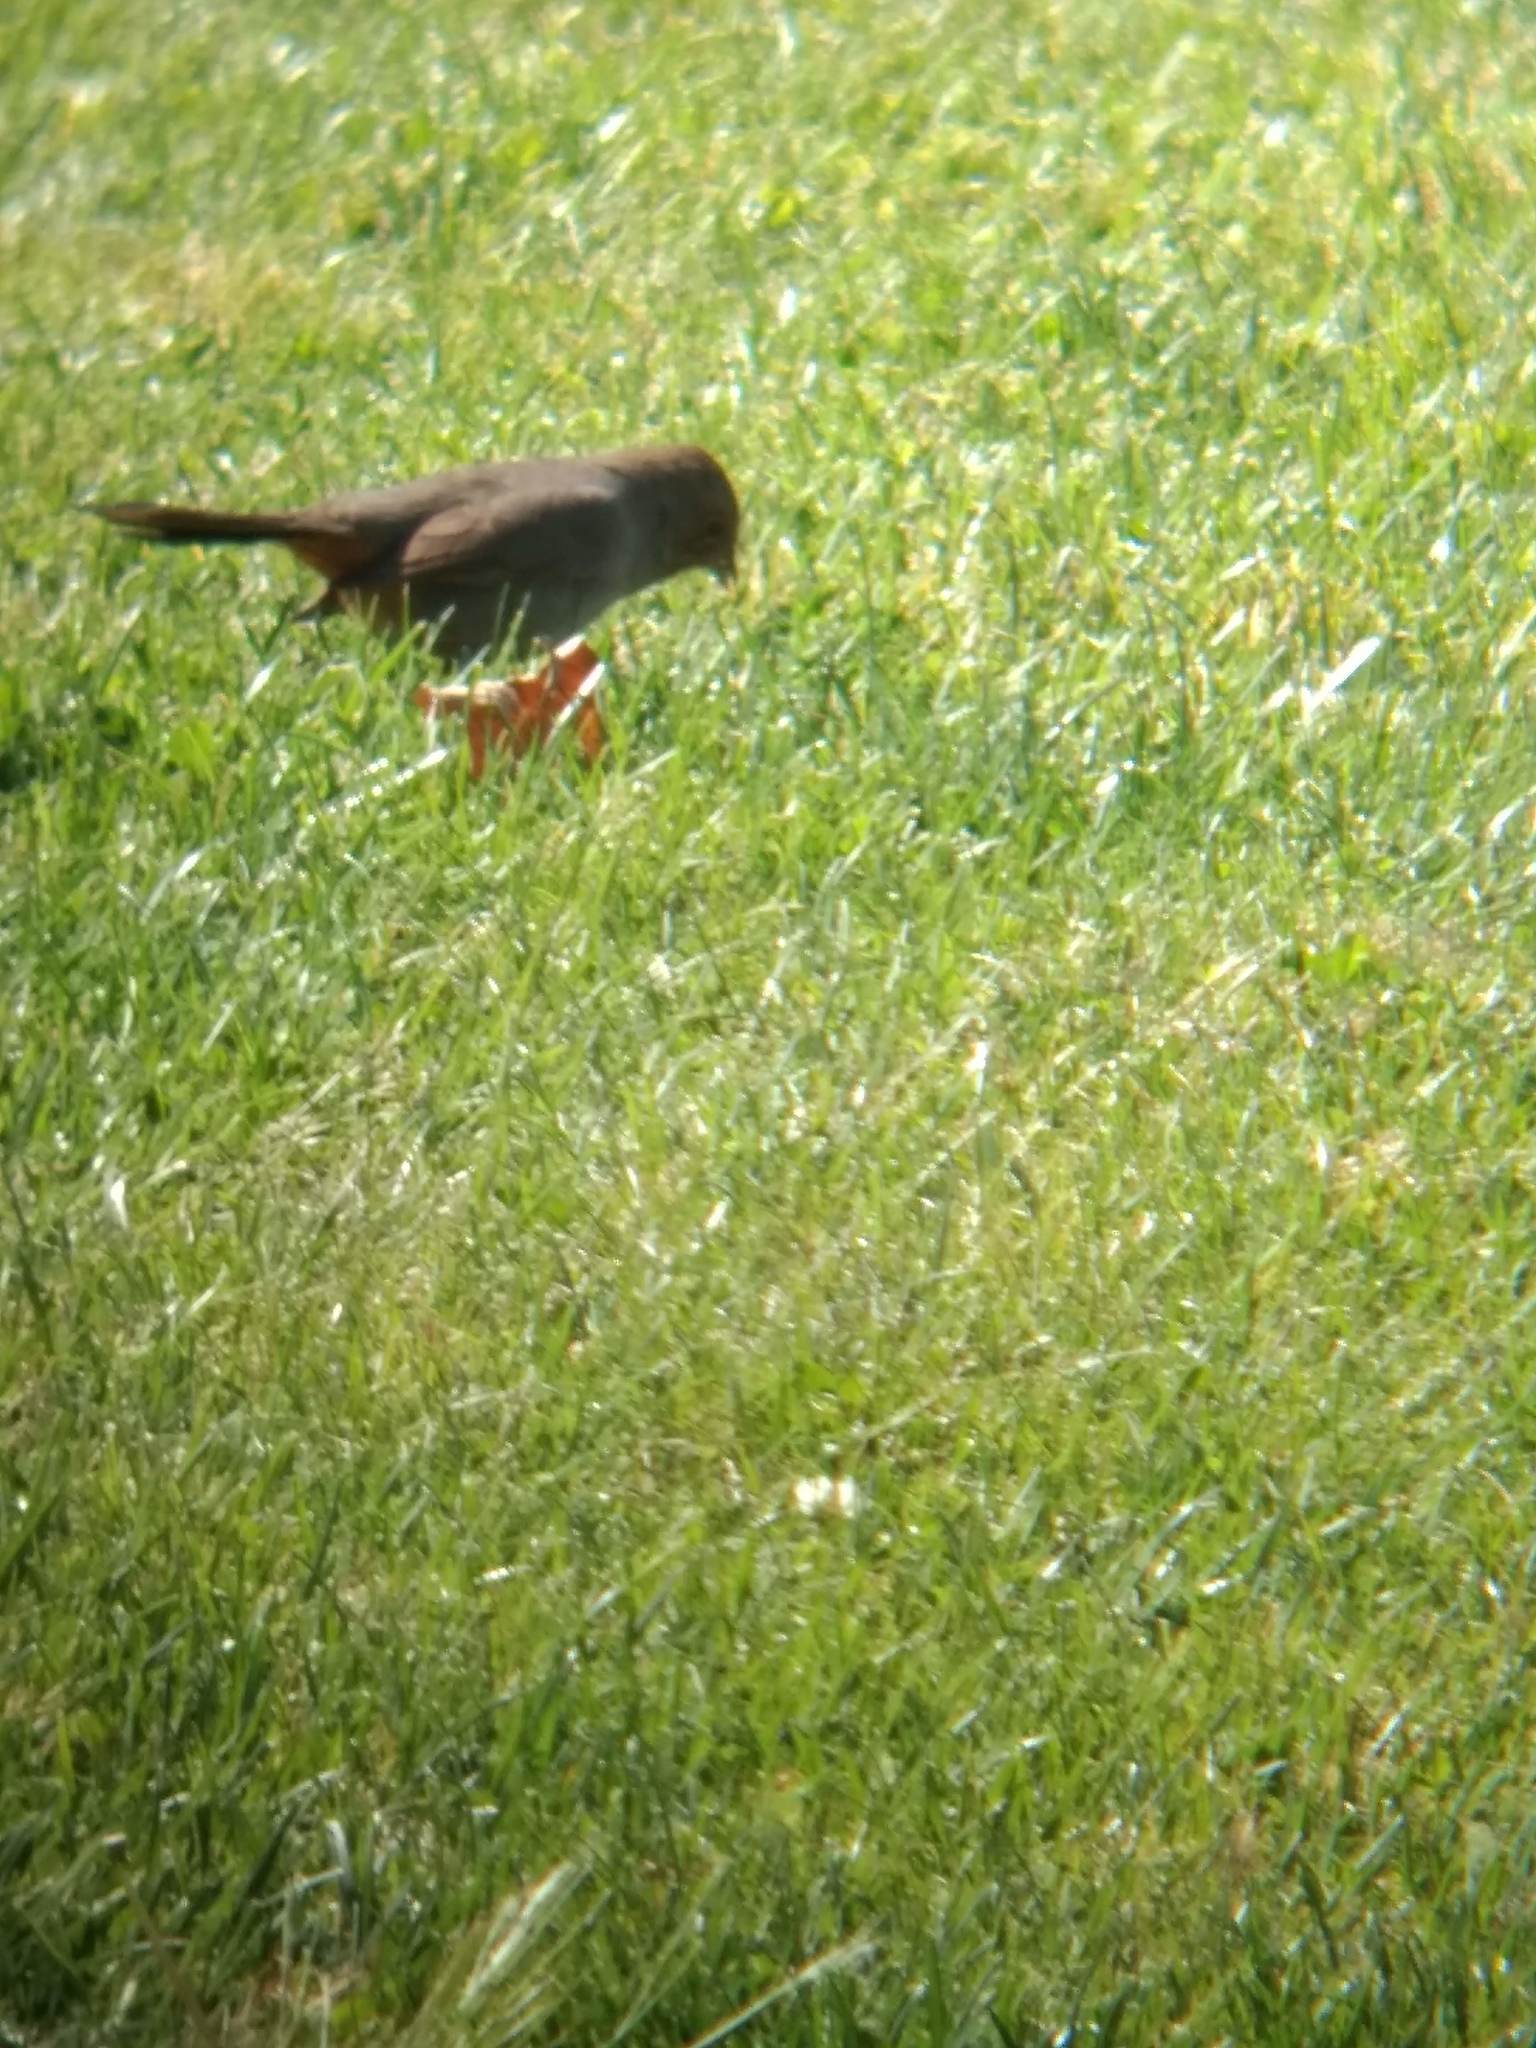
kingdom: Animalia
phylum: Chordata
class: Aves
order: Passeriformes
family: Passerellidae
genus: Melozone
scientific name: Melozone crissalis
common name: California towhee
